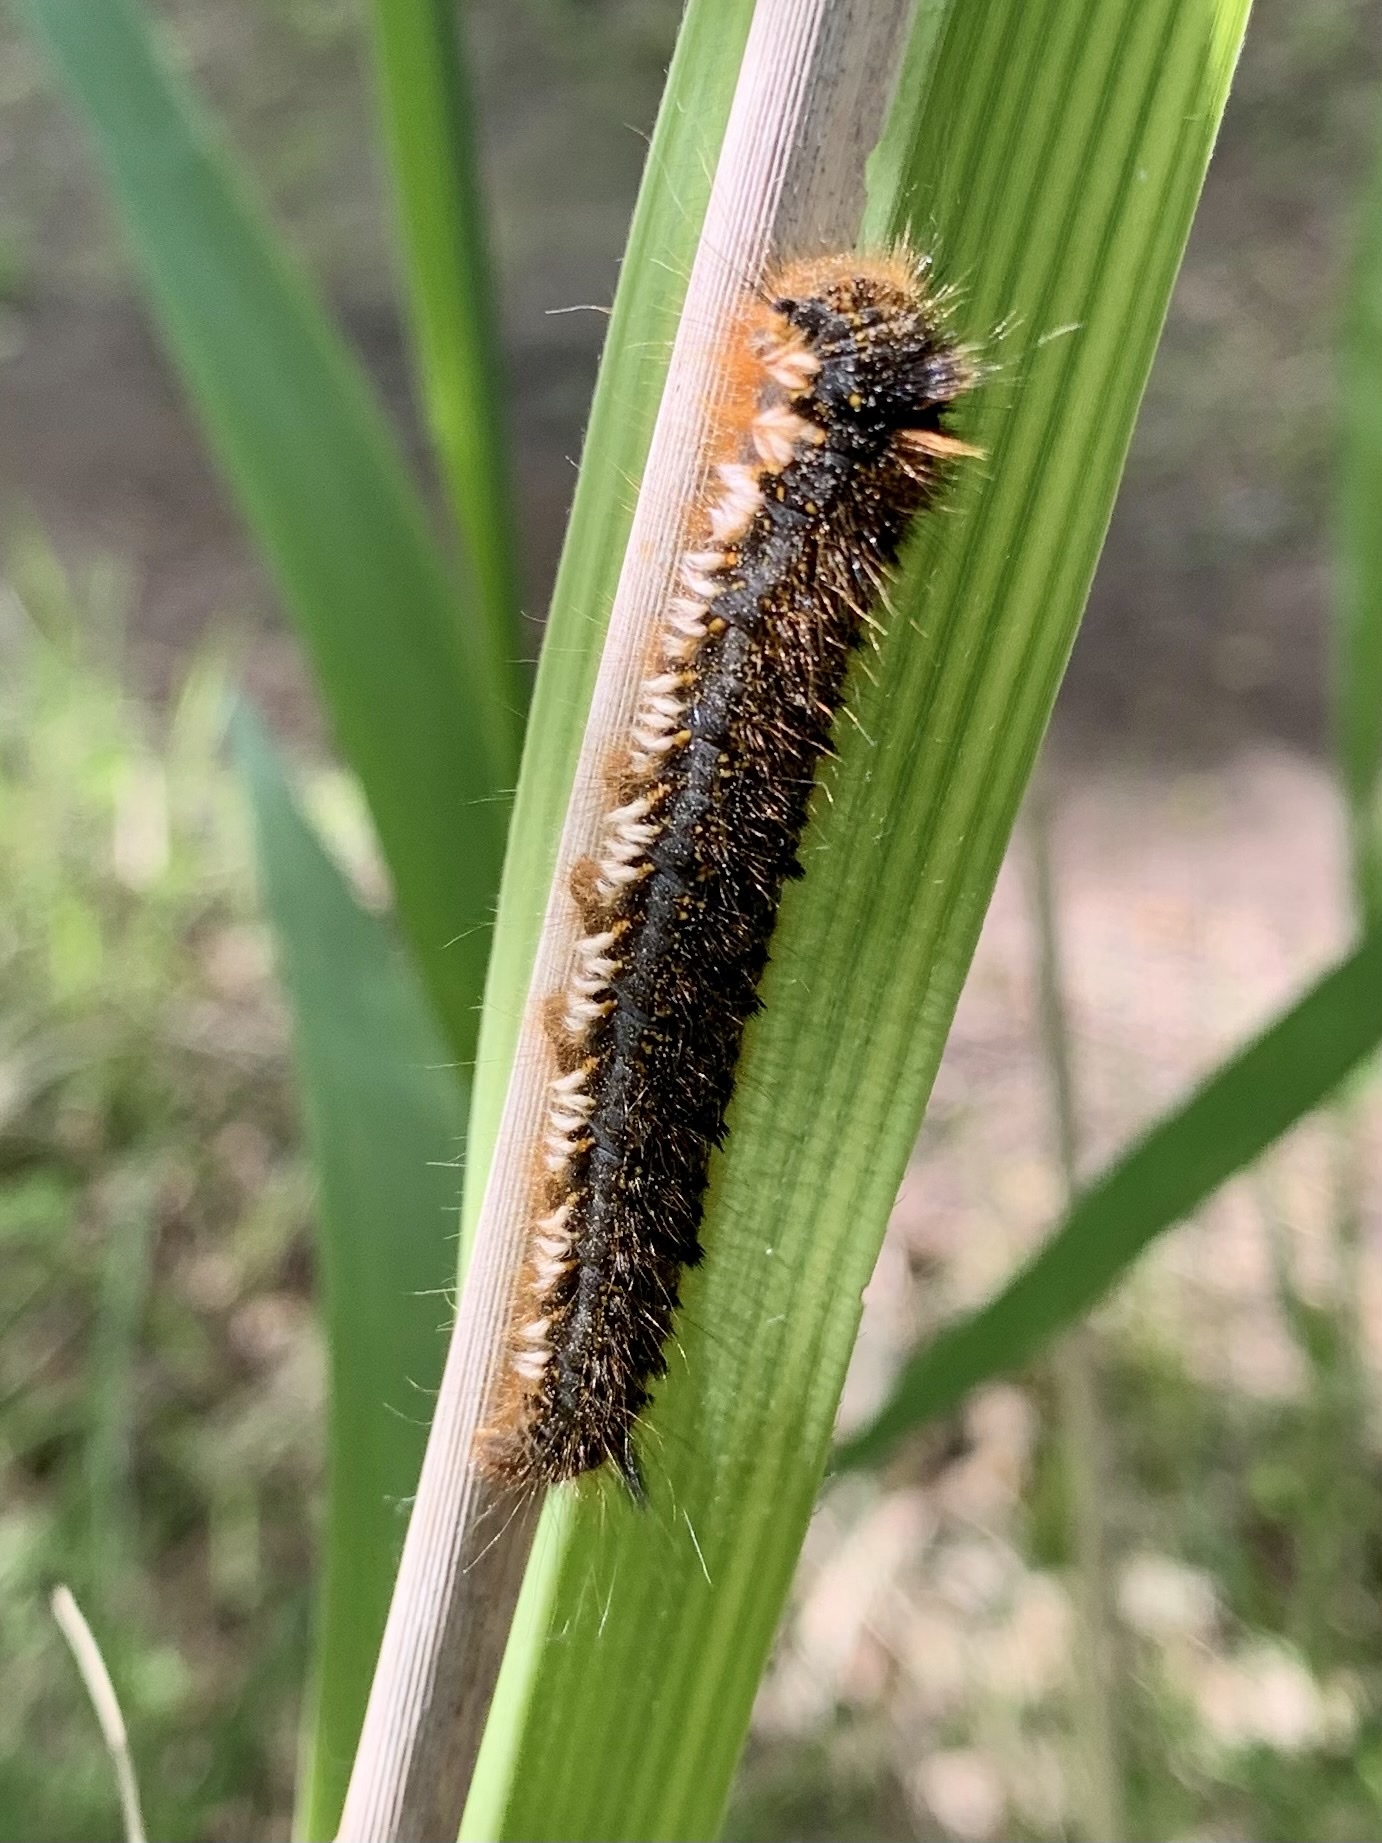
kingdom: Animalia
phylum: Arthropoda
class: Insecta
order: Lepidoptera
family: Lasiocampidae
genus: Euthrix
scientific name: Euthrix potatoria
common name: Drinker
